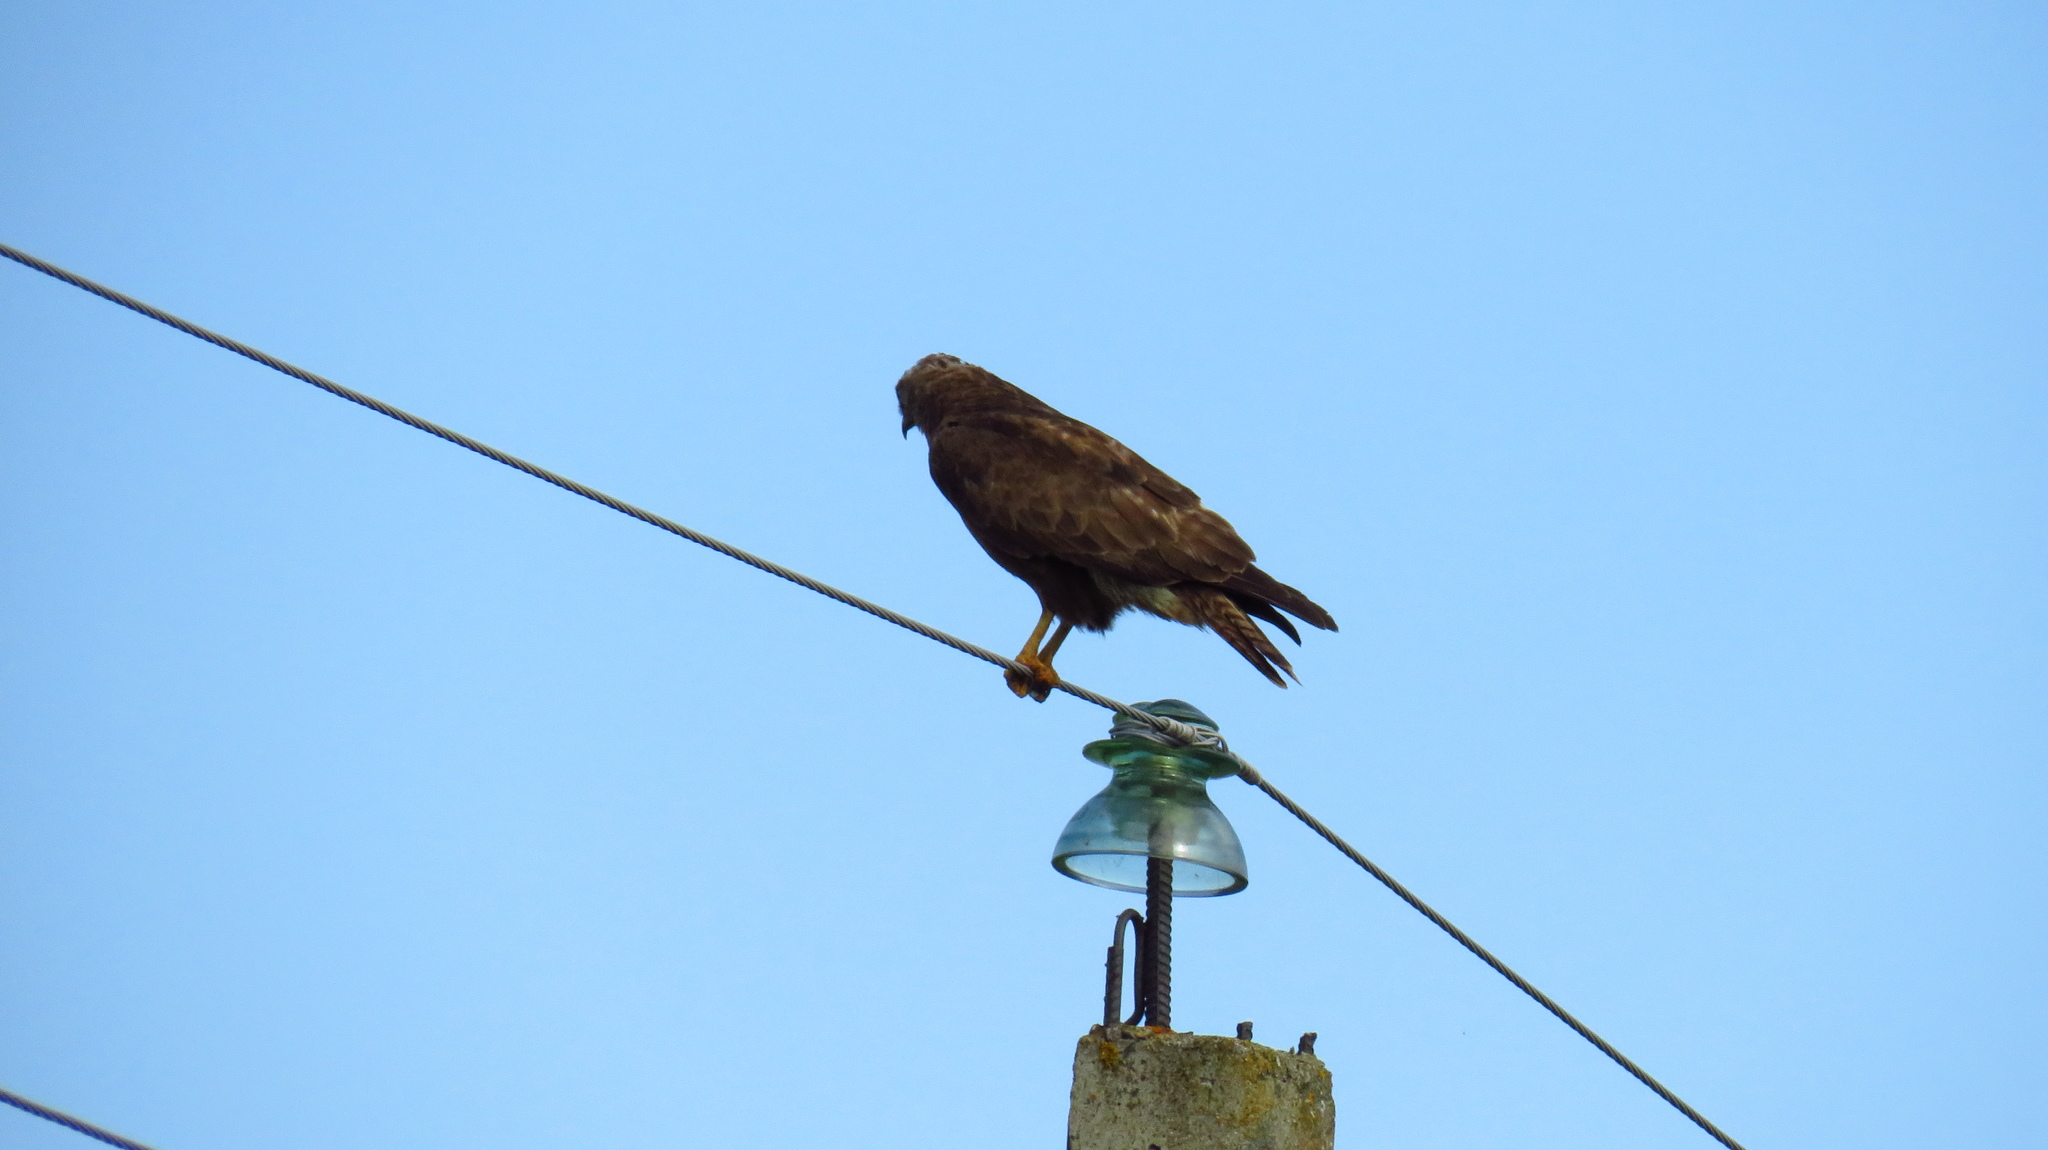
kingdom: Animalia
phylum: Chordata
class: Aves
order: Accipitriformes
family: Accipitridae
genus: Buteo
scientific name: Buteo buteo
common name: Common buzzard
